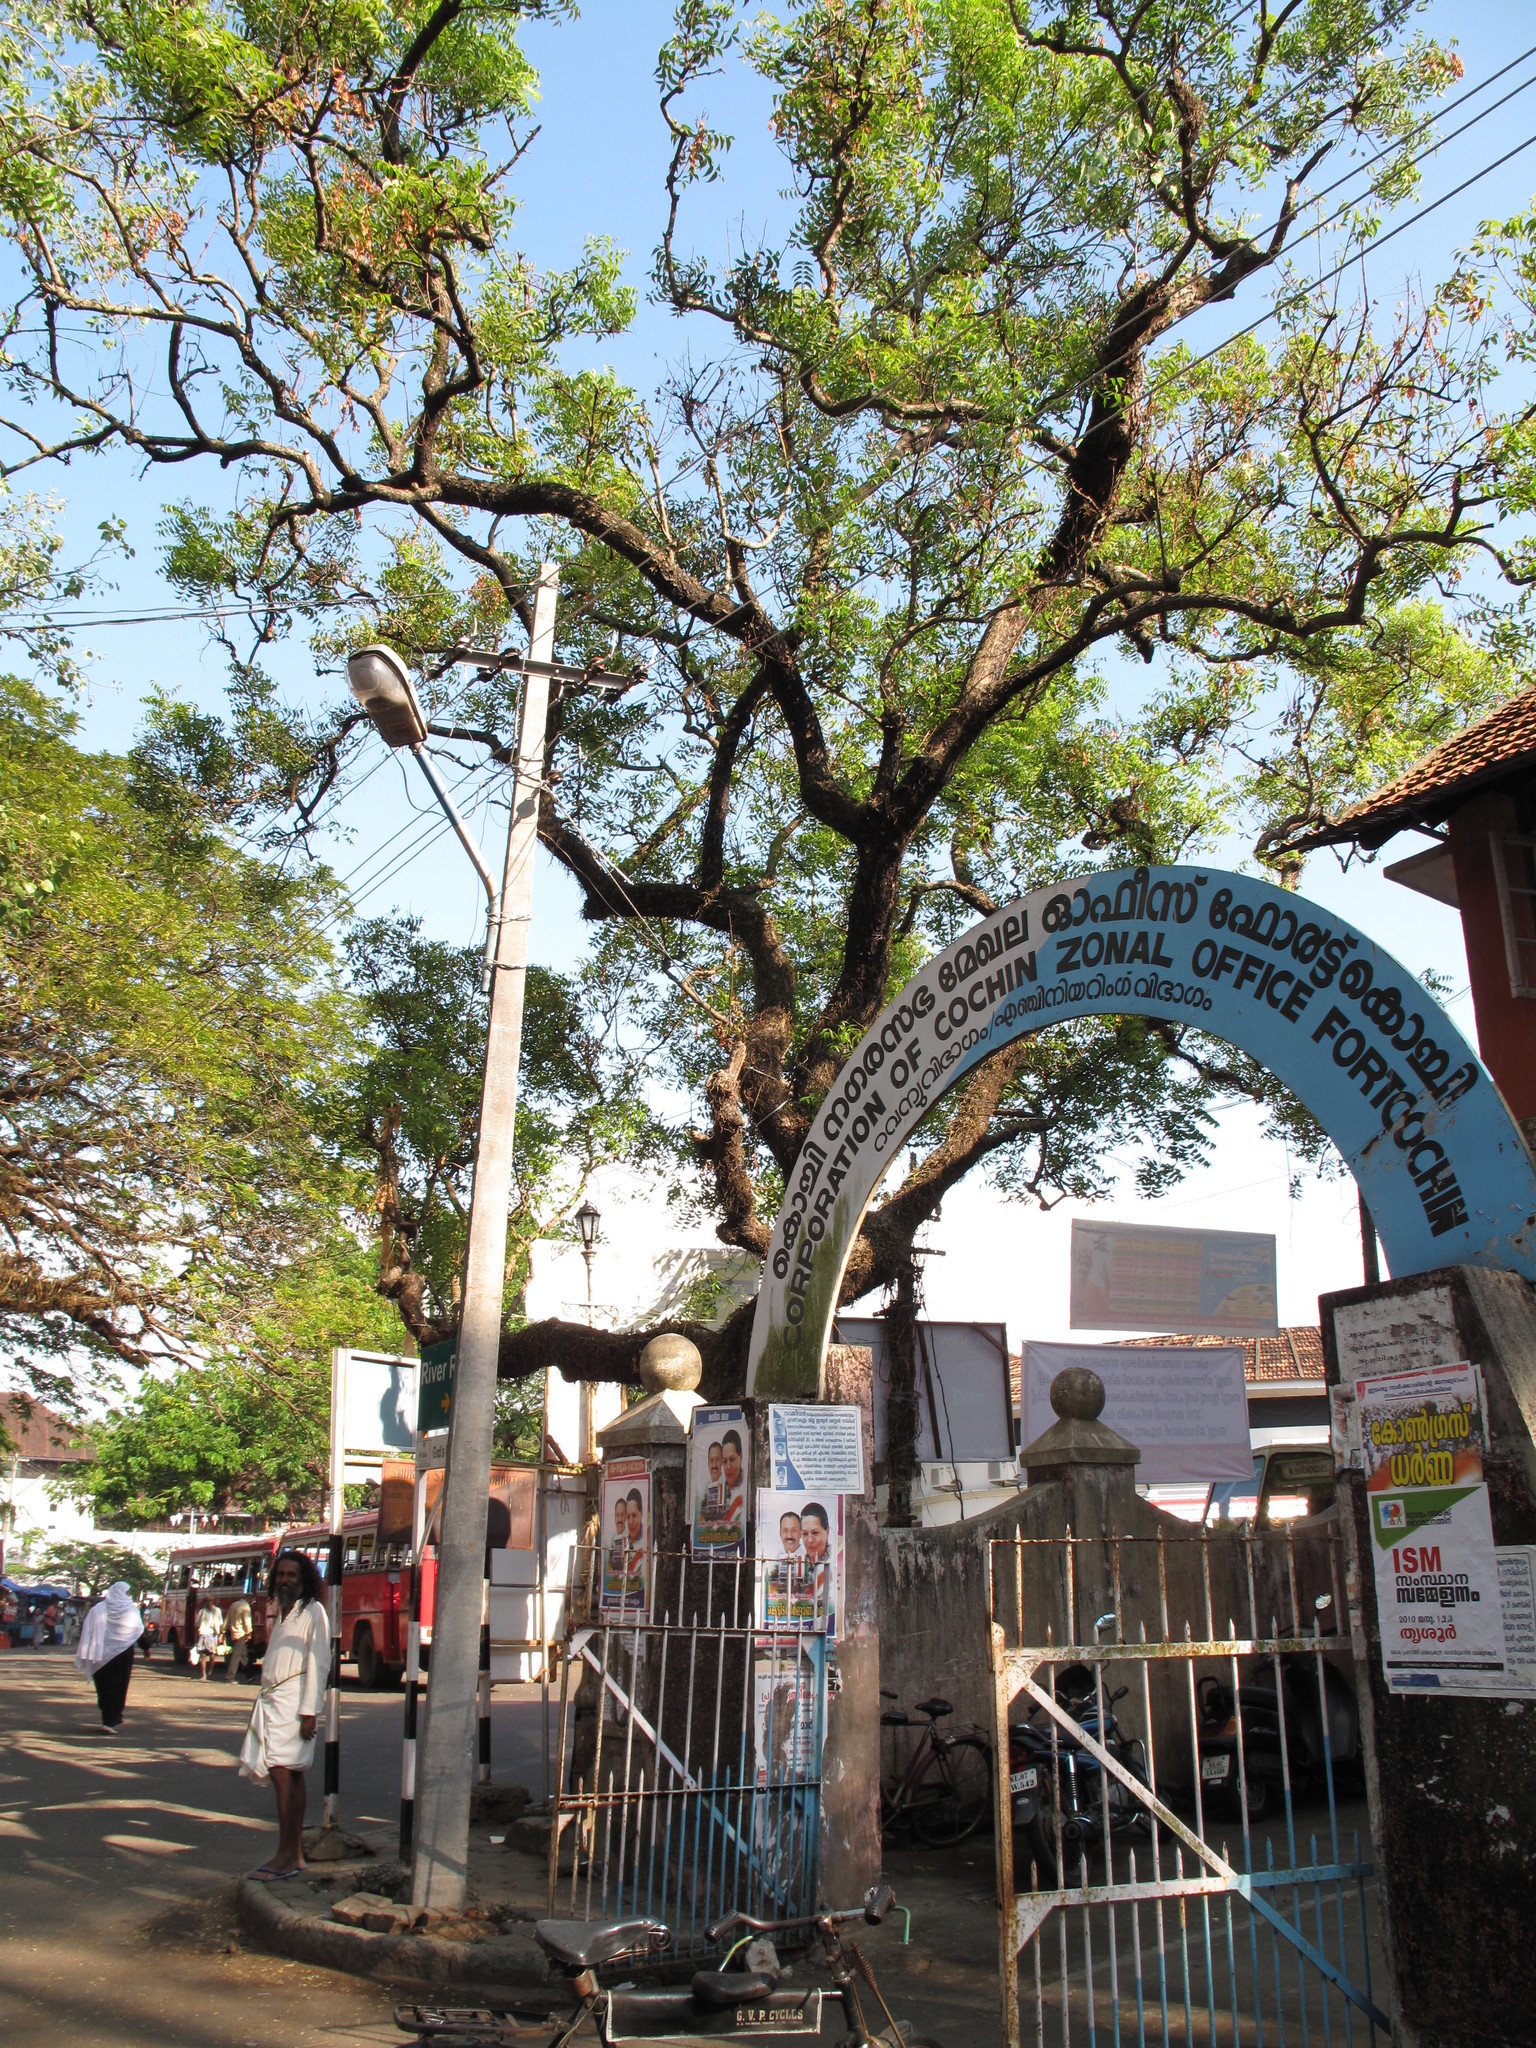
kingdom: Plantae
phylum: Tracheophyta
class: Magnoliopsida
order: Sapindales
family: Meliaceae
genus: Azadirachta
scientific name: Azadirachta indica
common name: Neem
